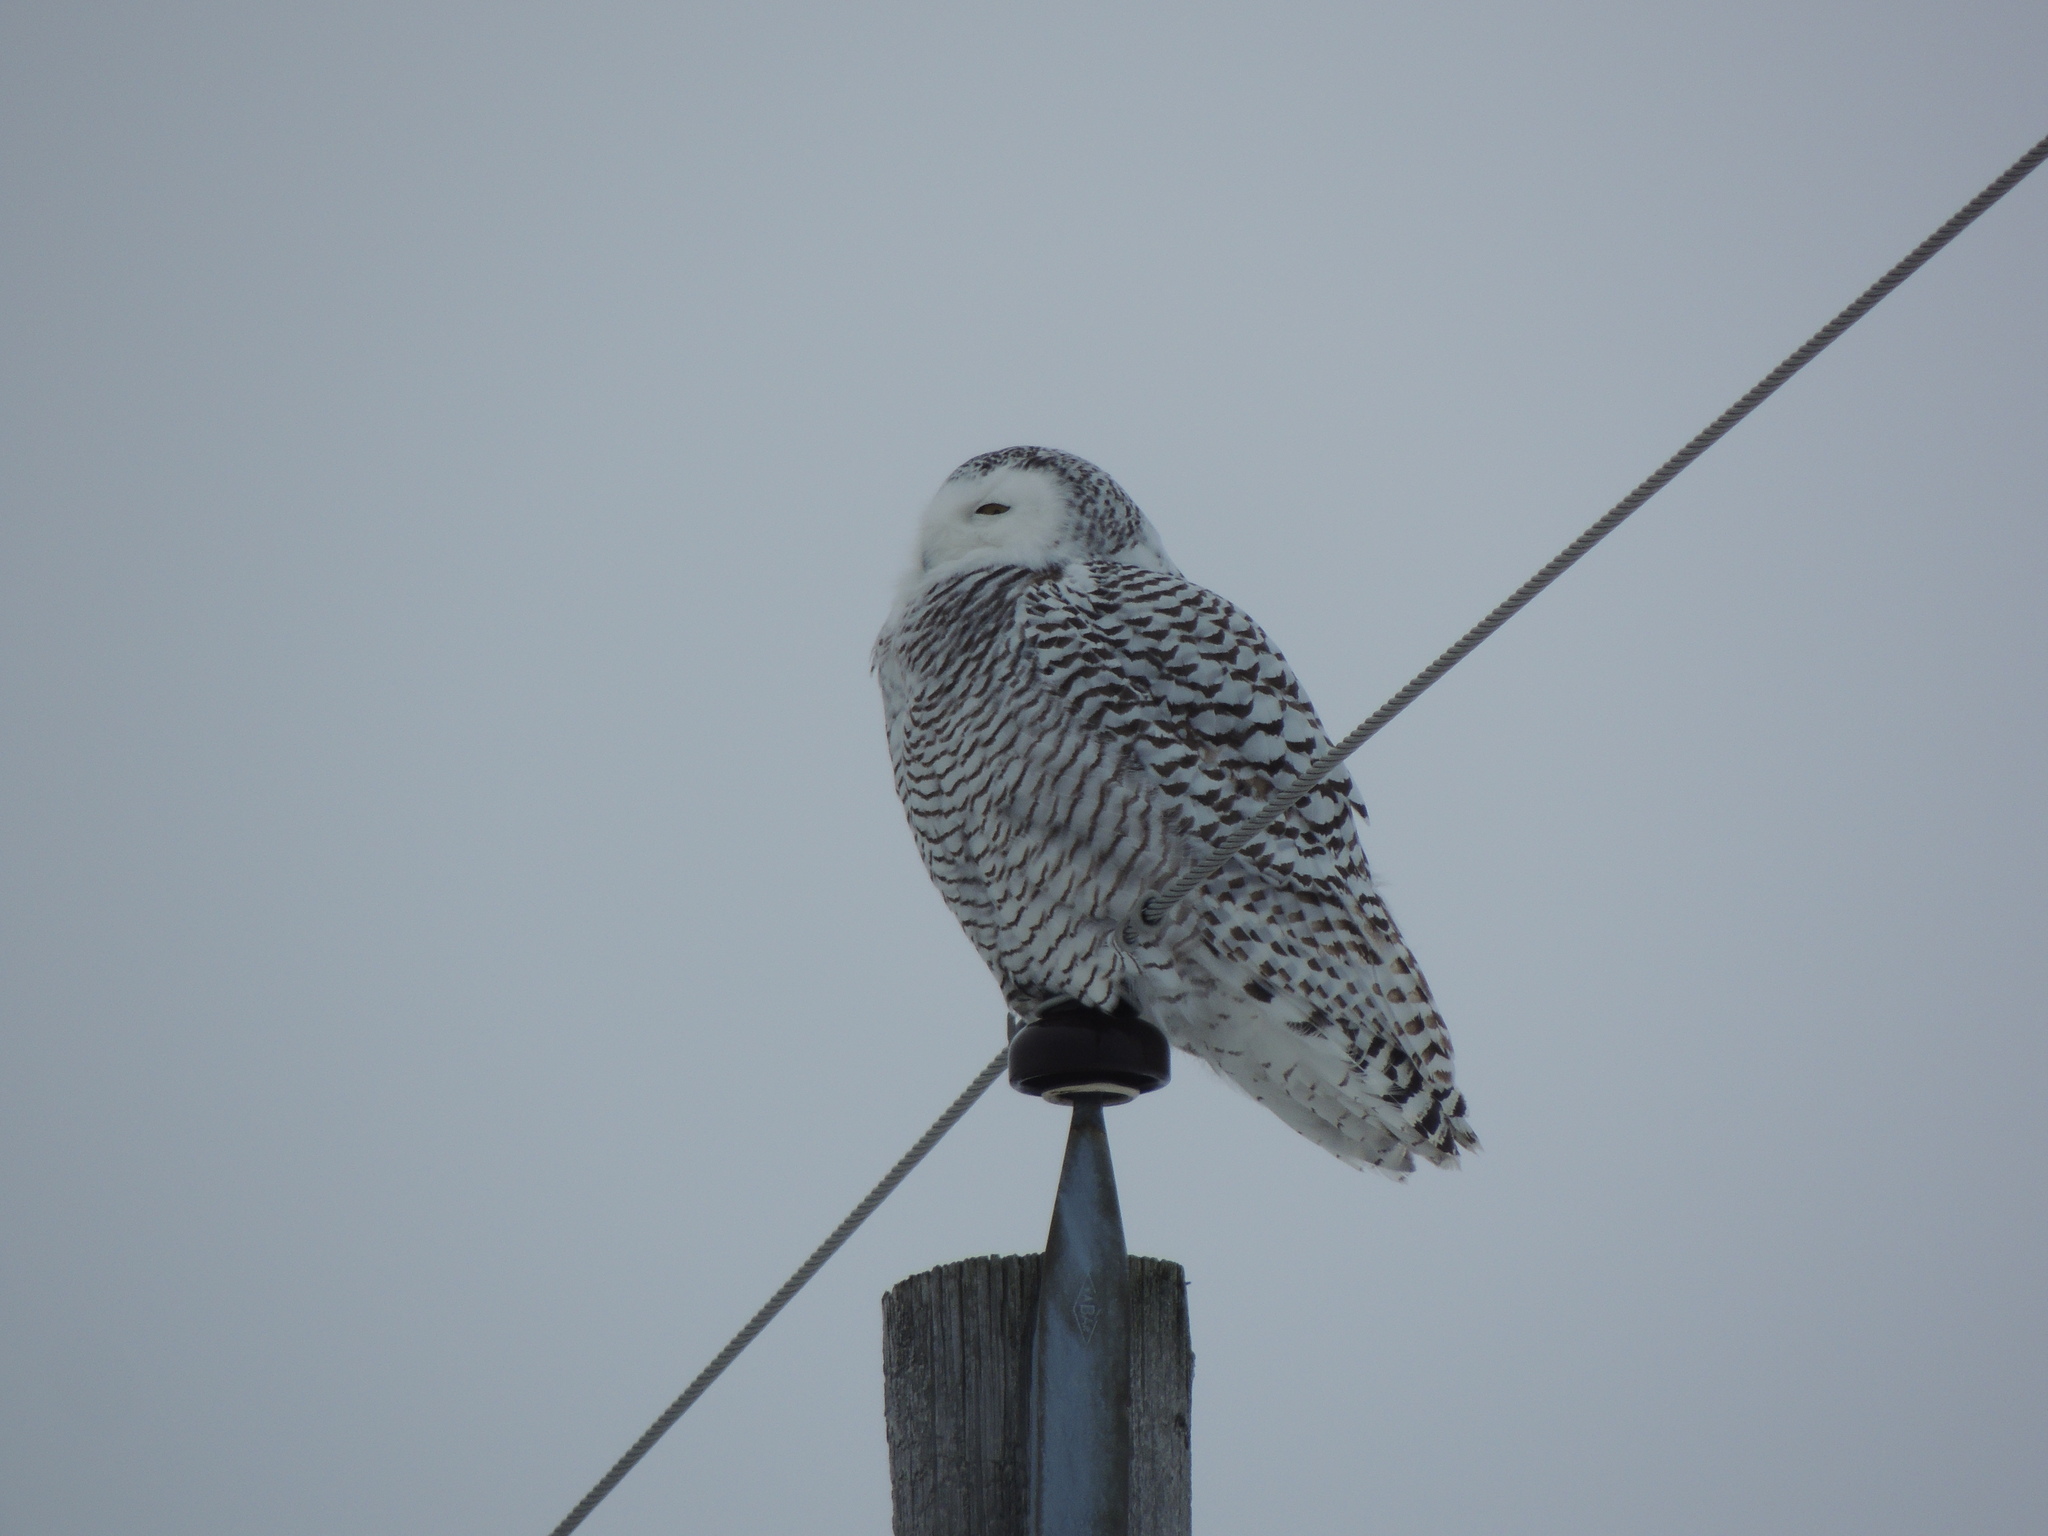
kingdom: Animalia
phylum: Chordata
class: Aves
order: Strigiformes
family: Strigidae
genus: Bubo
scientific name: Bubo scandiacus
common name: Snowy owl
